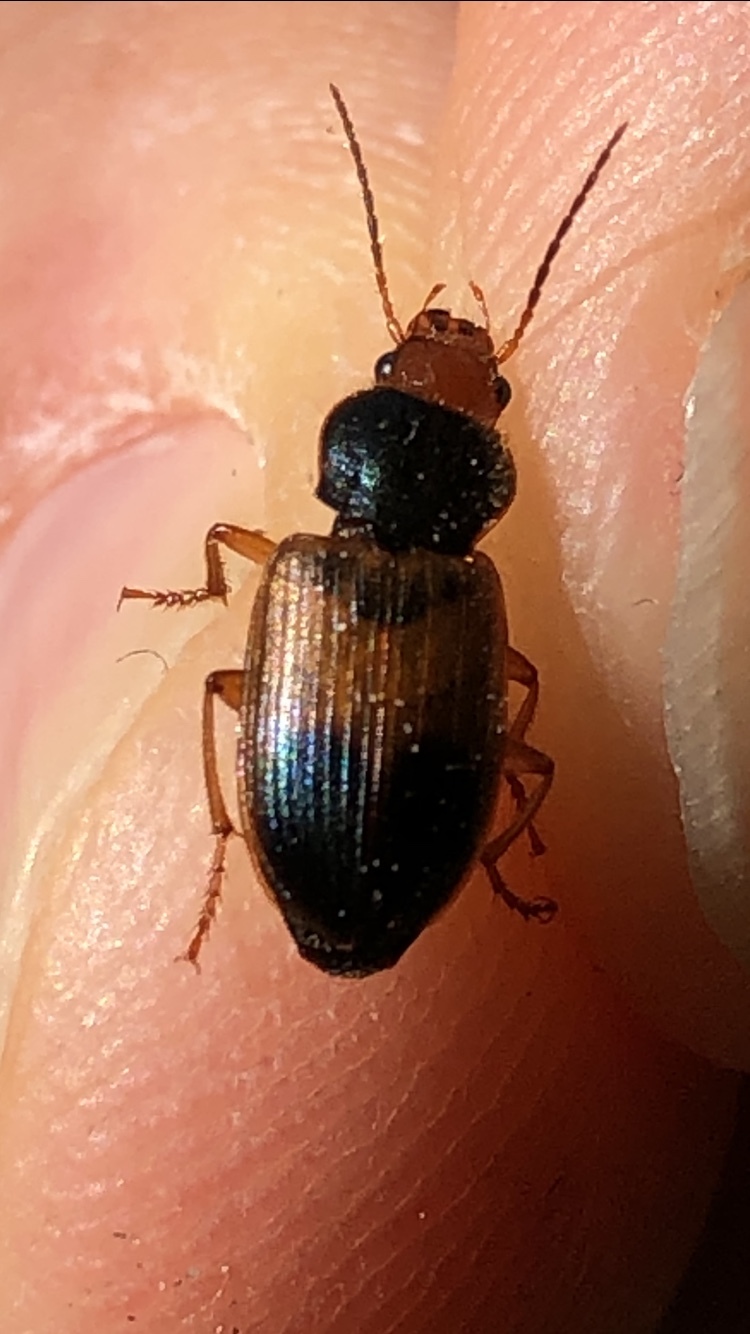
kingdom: Animalia
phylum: Arthropoda
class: Insecta
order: Coleoptera
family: Carabidae
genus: Diachromus
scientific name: Diachromus germanus
